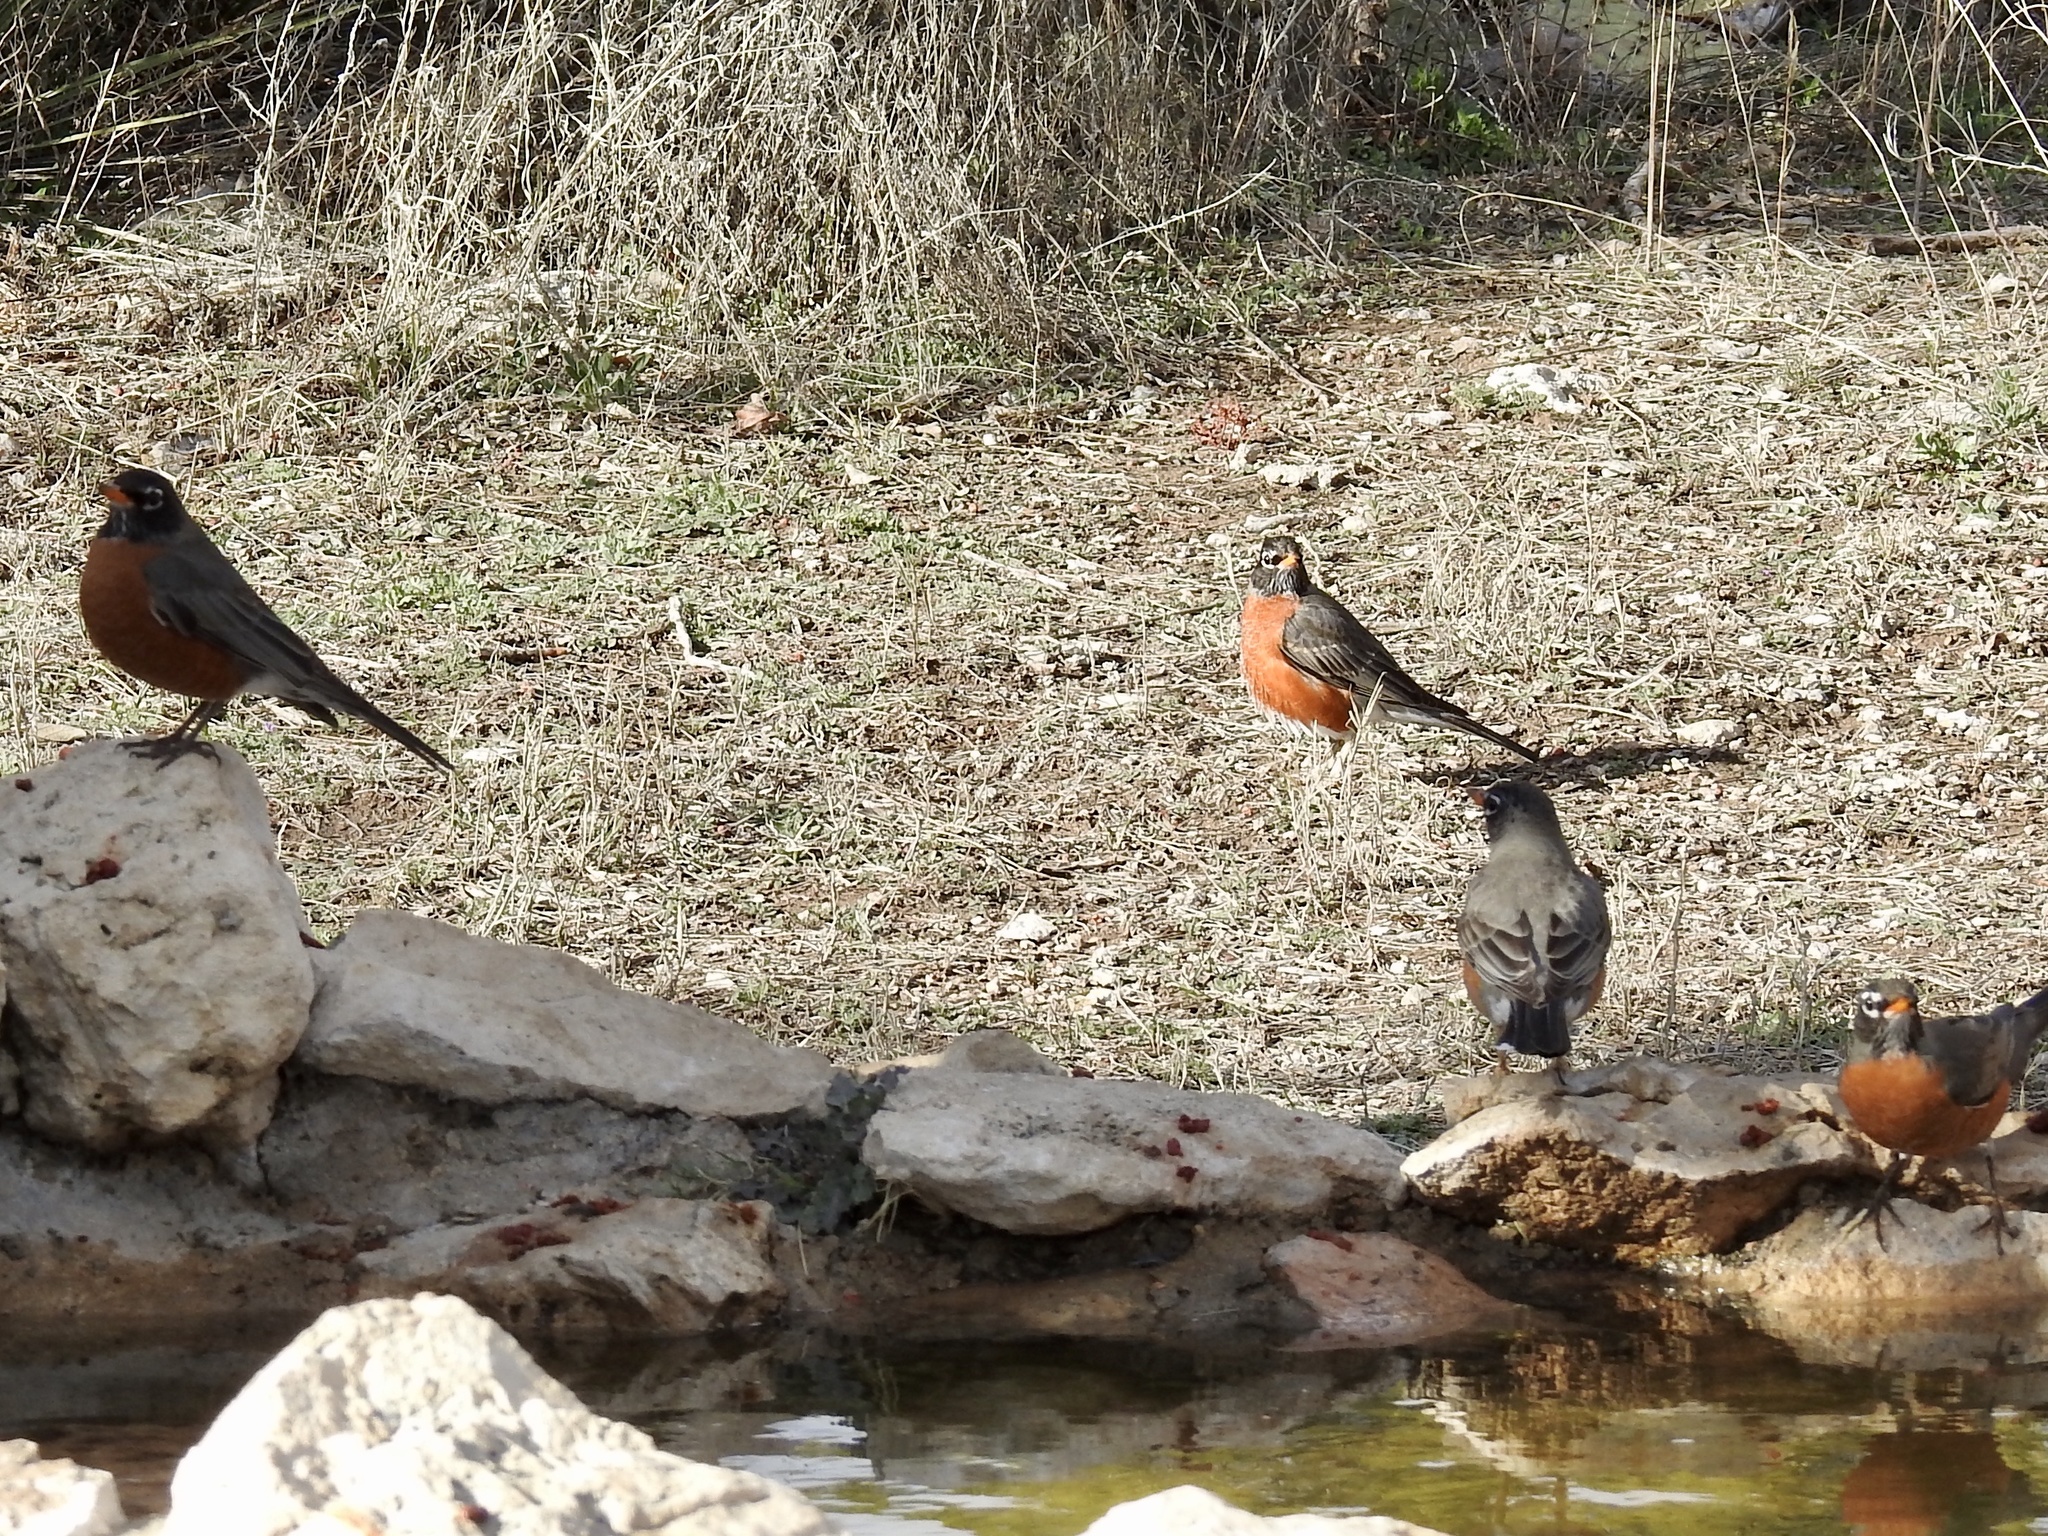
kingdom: Animalia
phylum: Chordata
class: Aves
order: Passeriformes
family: Turdidae
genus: Turdus
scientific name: Turdus migratorius
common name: American robin
